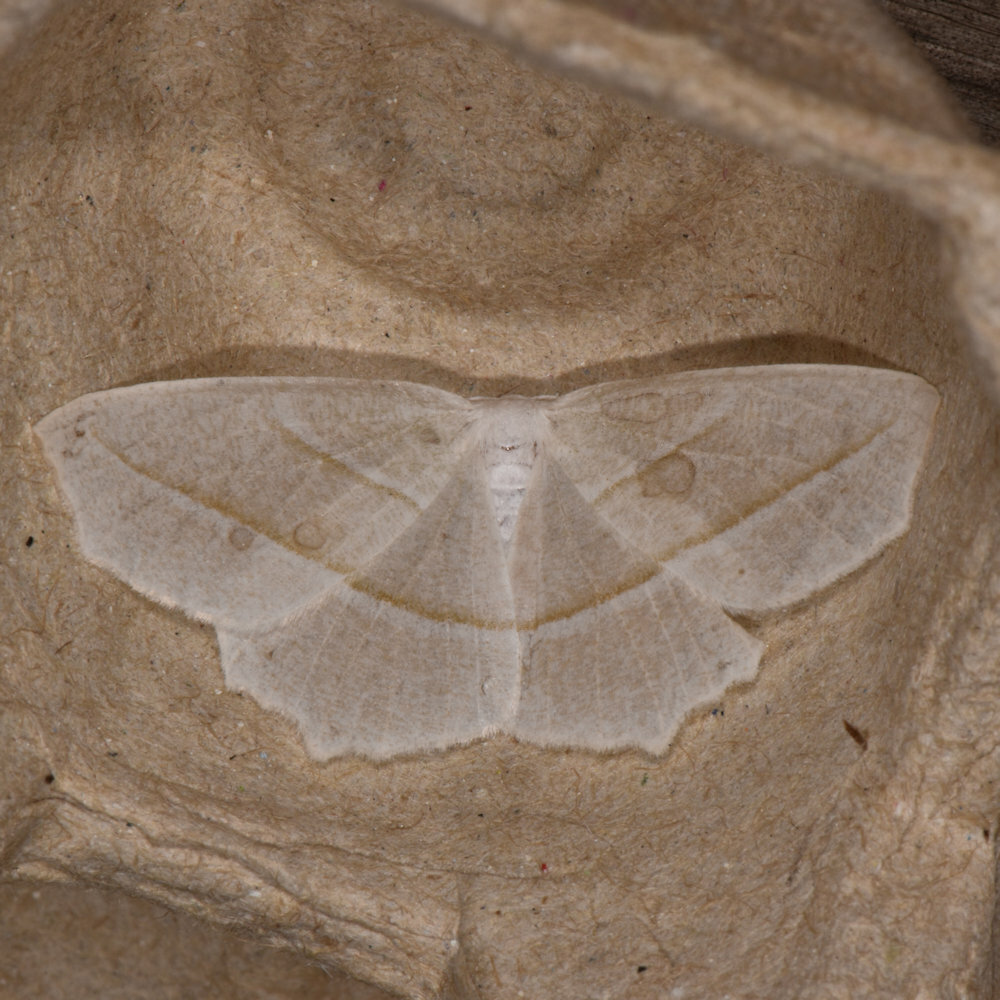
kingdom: Animalia
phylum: Arthropoda
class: Insecta
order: Lepidoptera
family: Geometridae
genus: Campaea
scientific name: Campaea perlata
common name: Fringed looper
